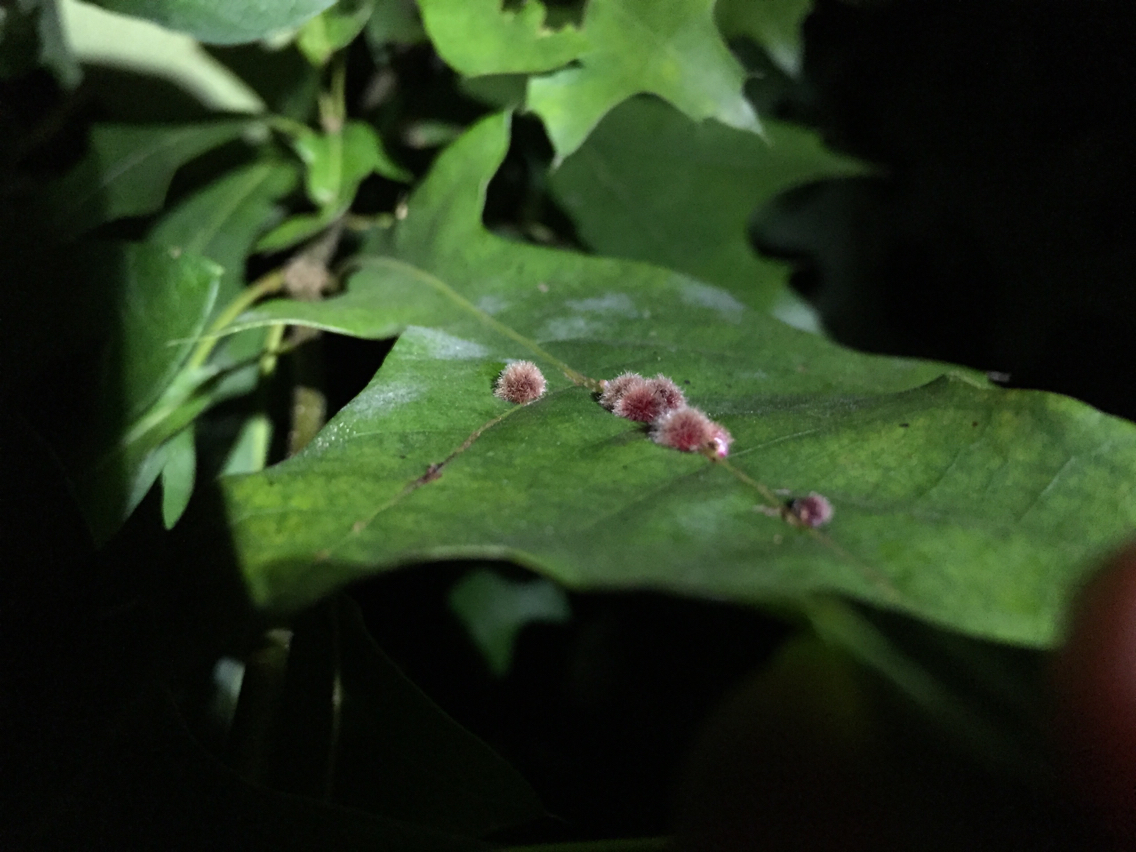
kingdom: Animalia
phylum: Arthropoda
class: Insecta
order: Hymenoptera
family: Cynipidae
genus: Callirhytis
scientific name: Callirhytis
